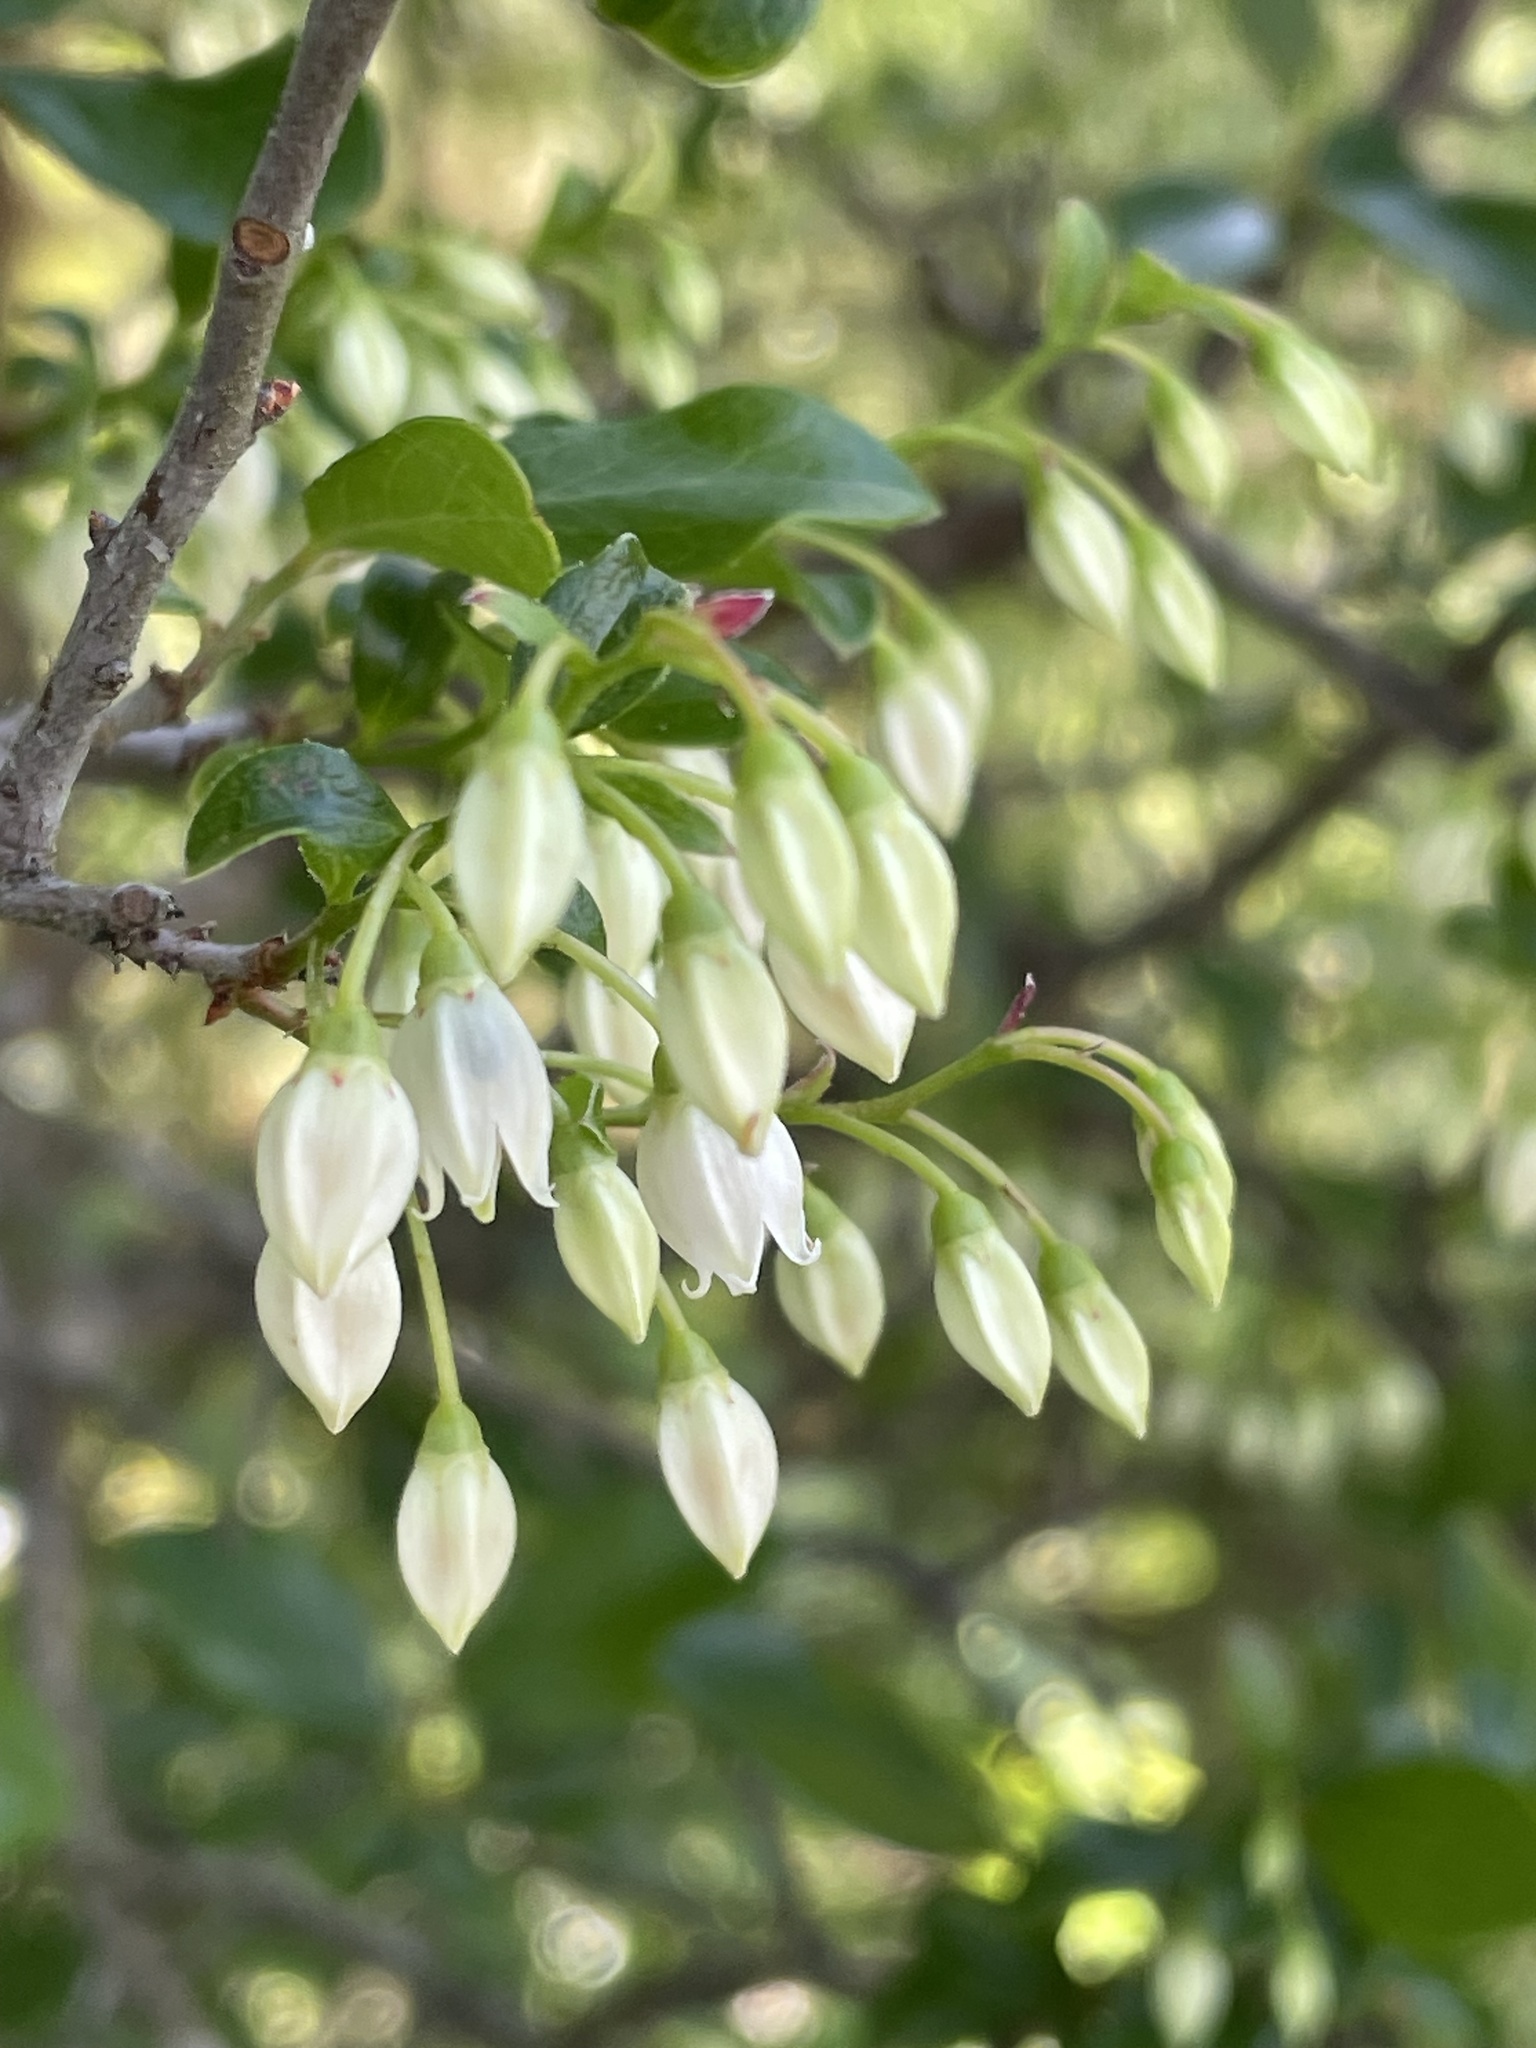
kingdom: Plantae
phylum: Tracheophyta
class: Magnoliopsida
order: Ericales
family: Ericaceae
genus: Vaccinium
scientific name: Vaccinium arboreum
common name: Farkleberry
